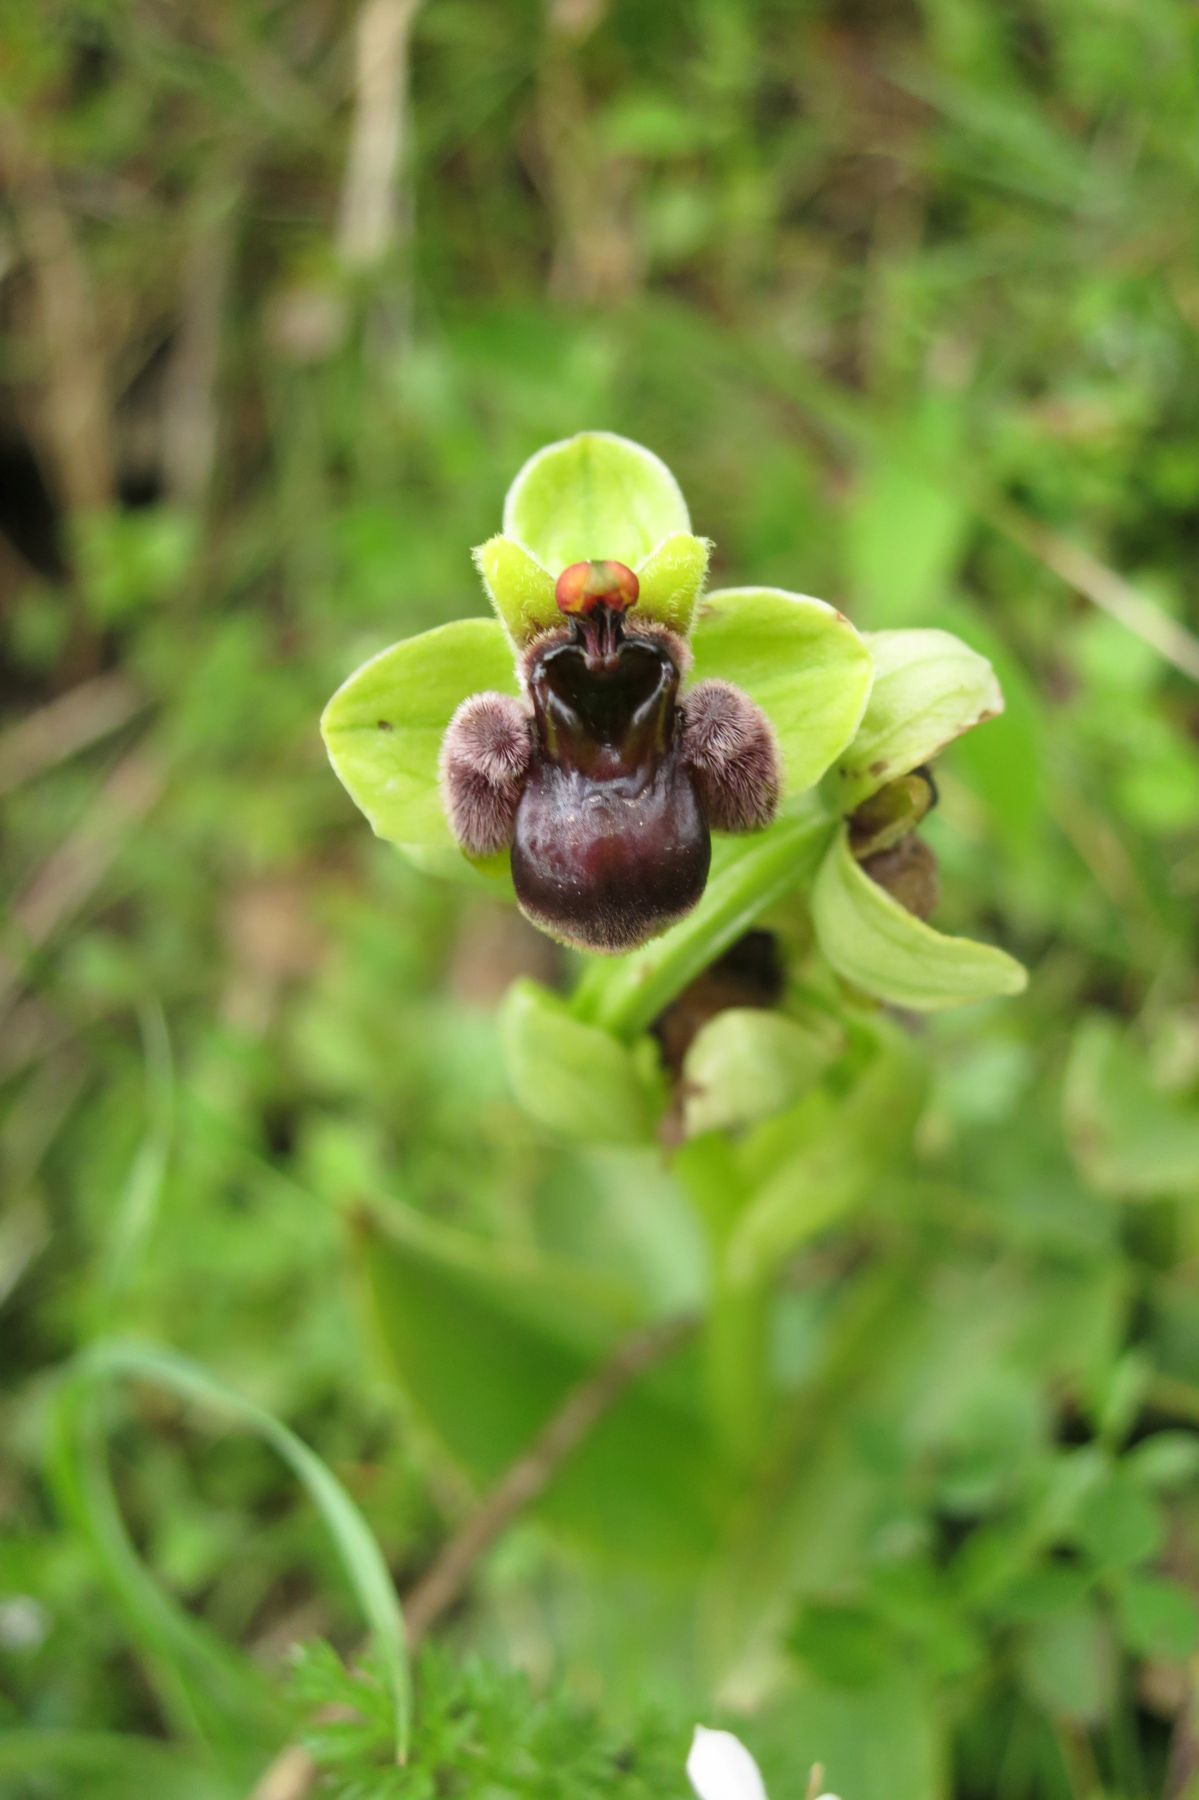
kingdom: Plantae
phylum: Tracheophyta
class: Liliopsida
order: Asparagales
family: Orchidaceae
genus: Ophrys
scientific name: Ophrys bombyliflora
